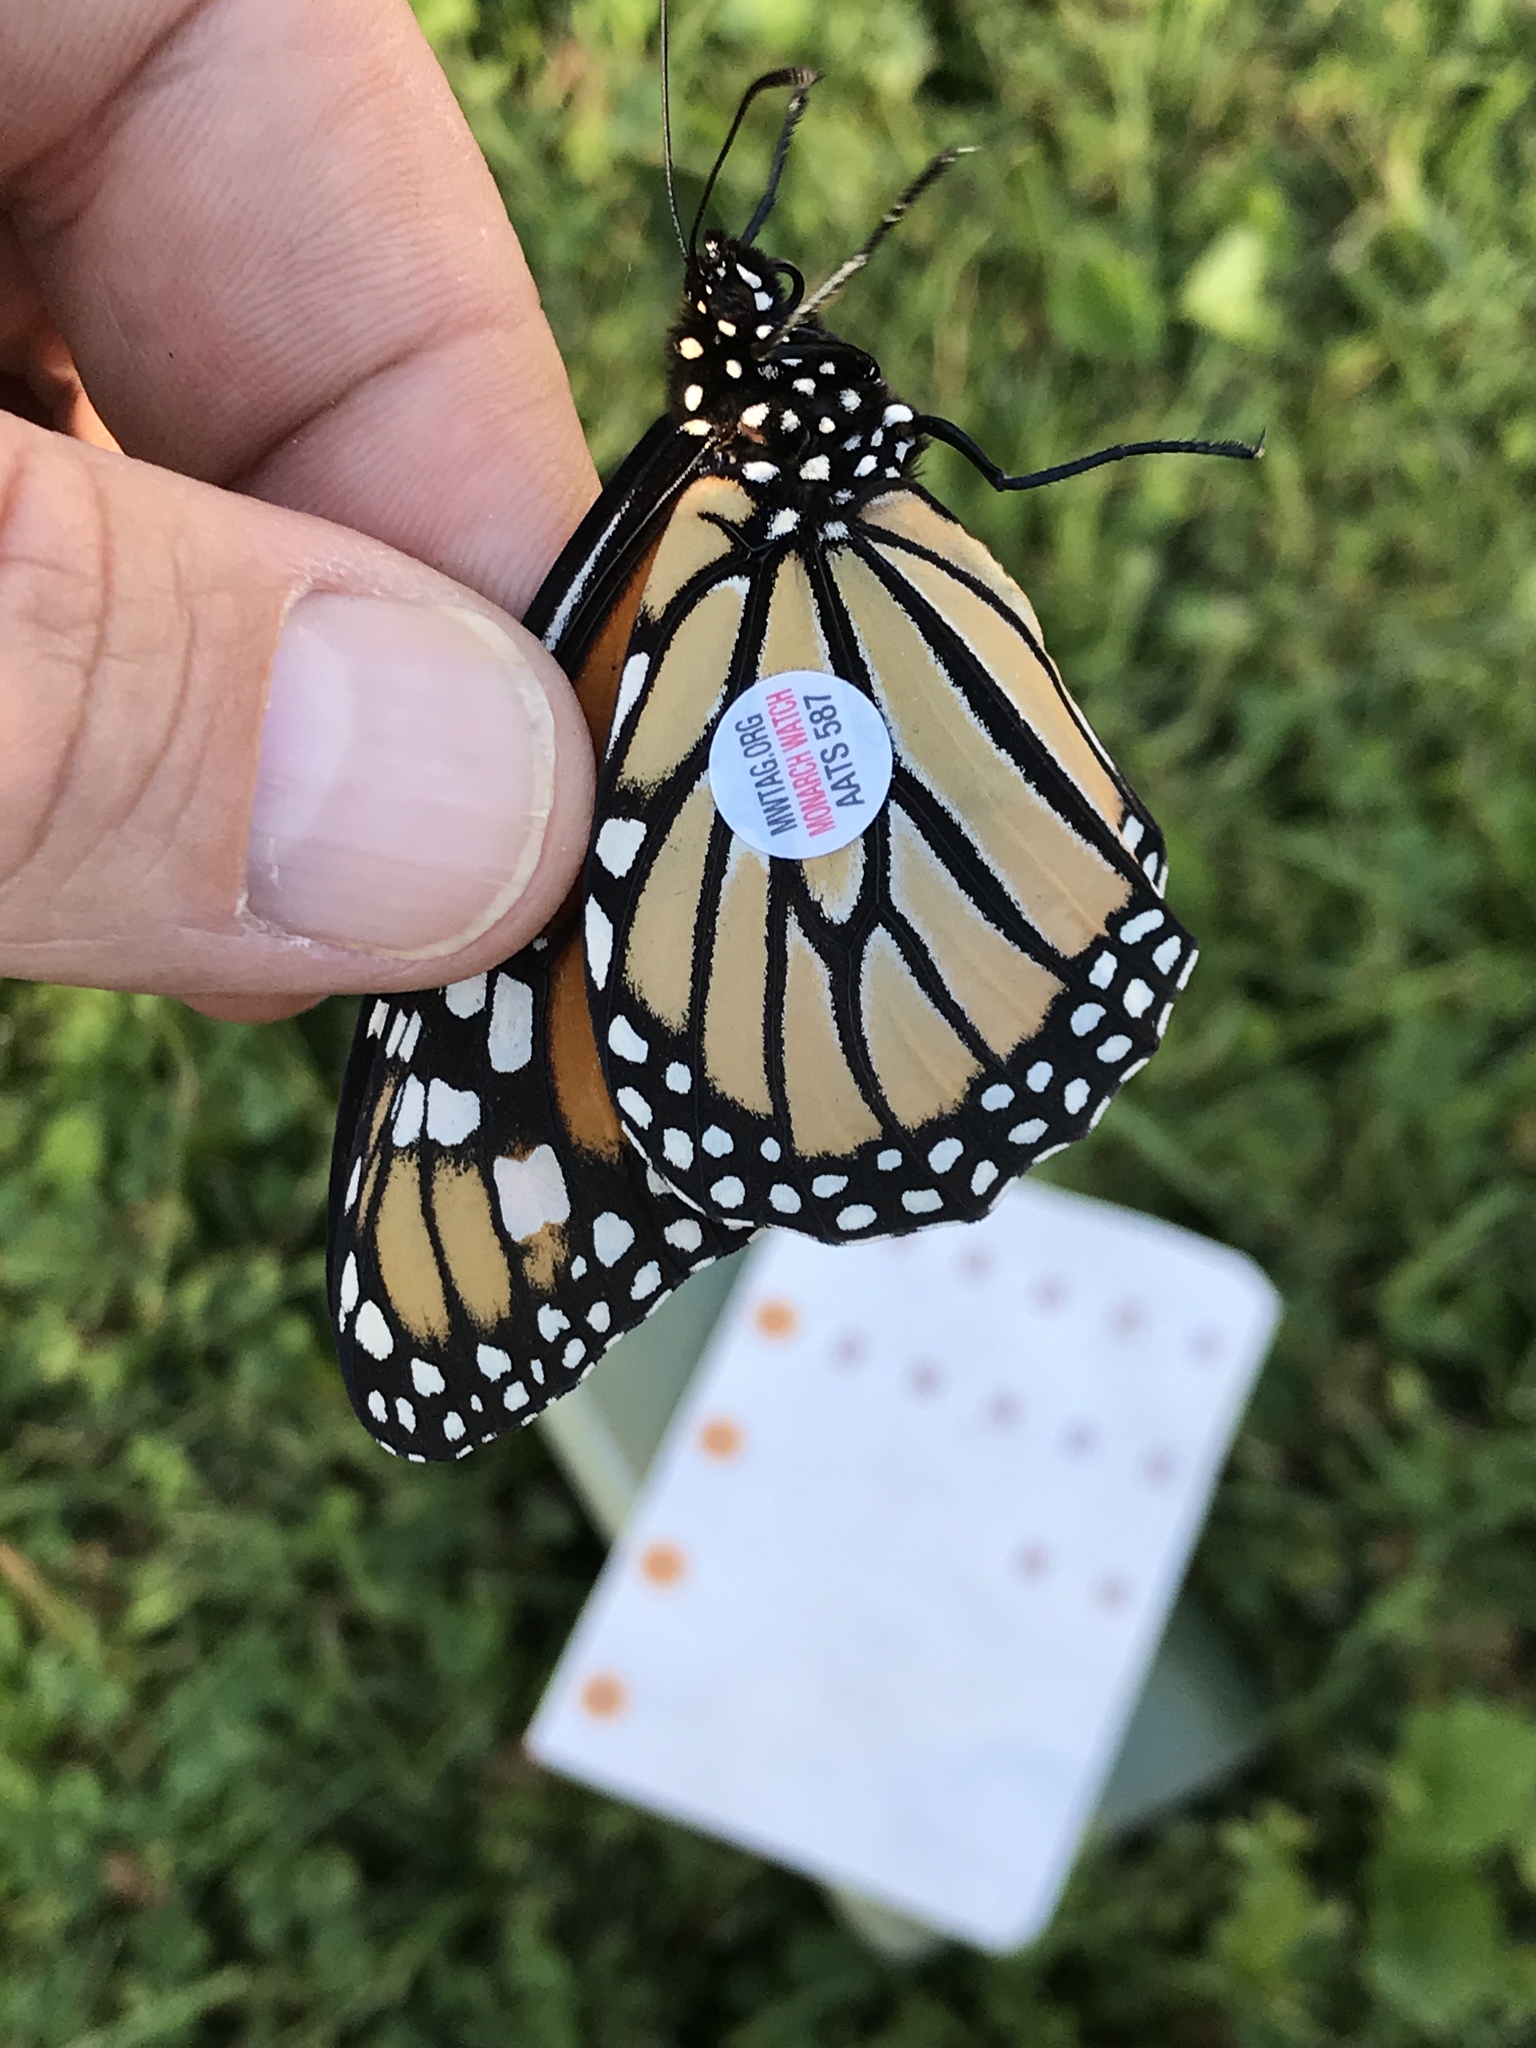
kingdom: Animalia
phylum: Arthropoda
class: Insecta
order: Lepidoptera
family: Nymphalidae
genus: Danaus
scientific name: Danaus plexippus
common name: Monarch
